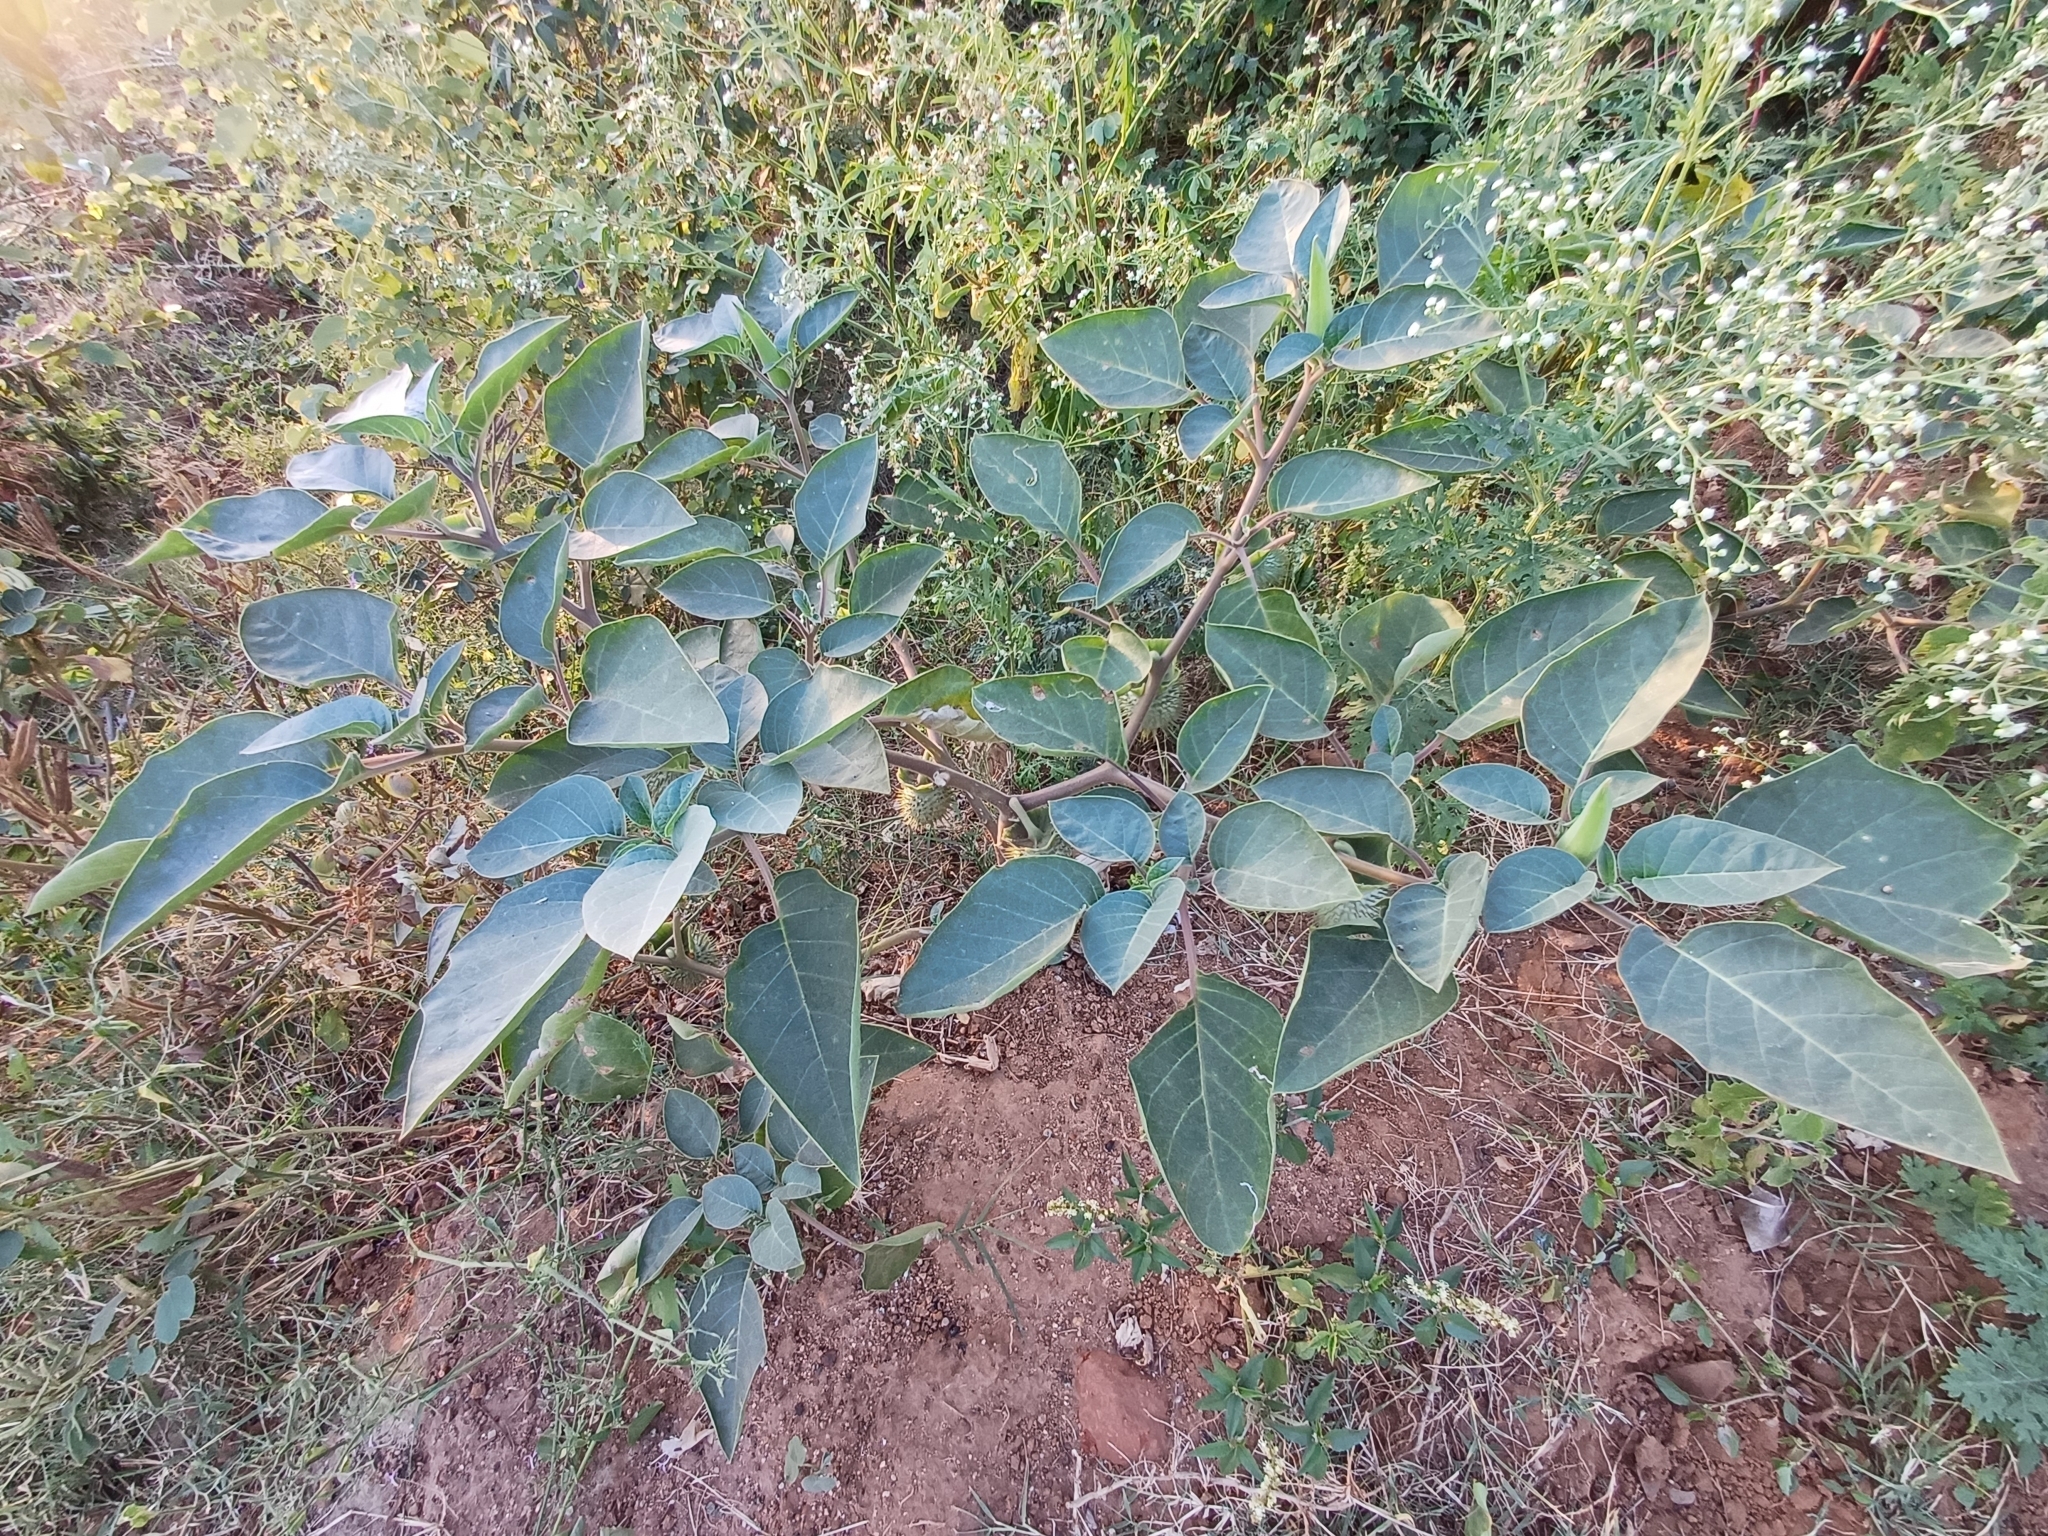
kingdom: Plantae
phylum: Tracheophyta
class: Magnoliopsida
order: Solanales
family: Solanaceae
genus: Datura
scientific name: Datura innoxia
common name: Downy thorn-apple
